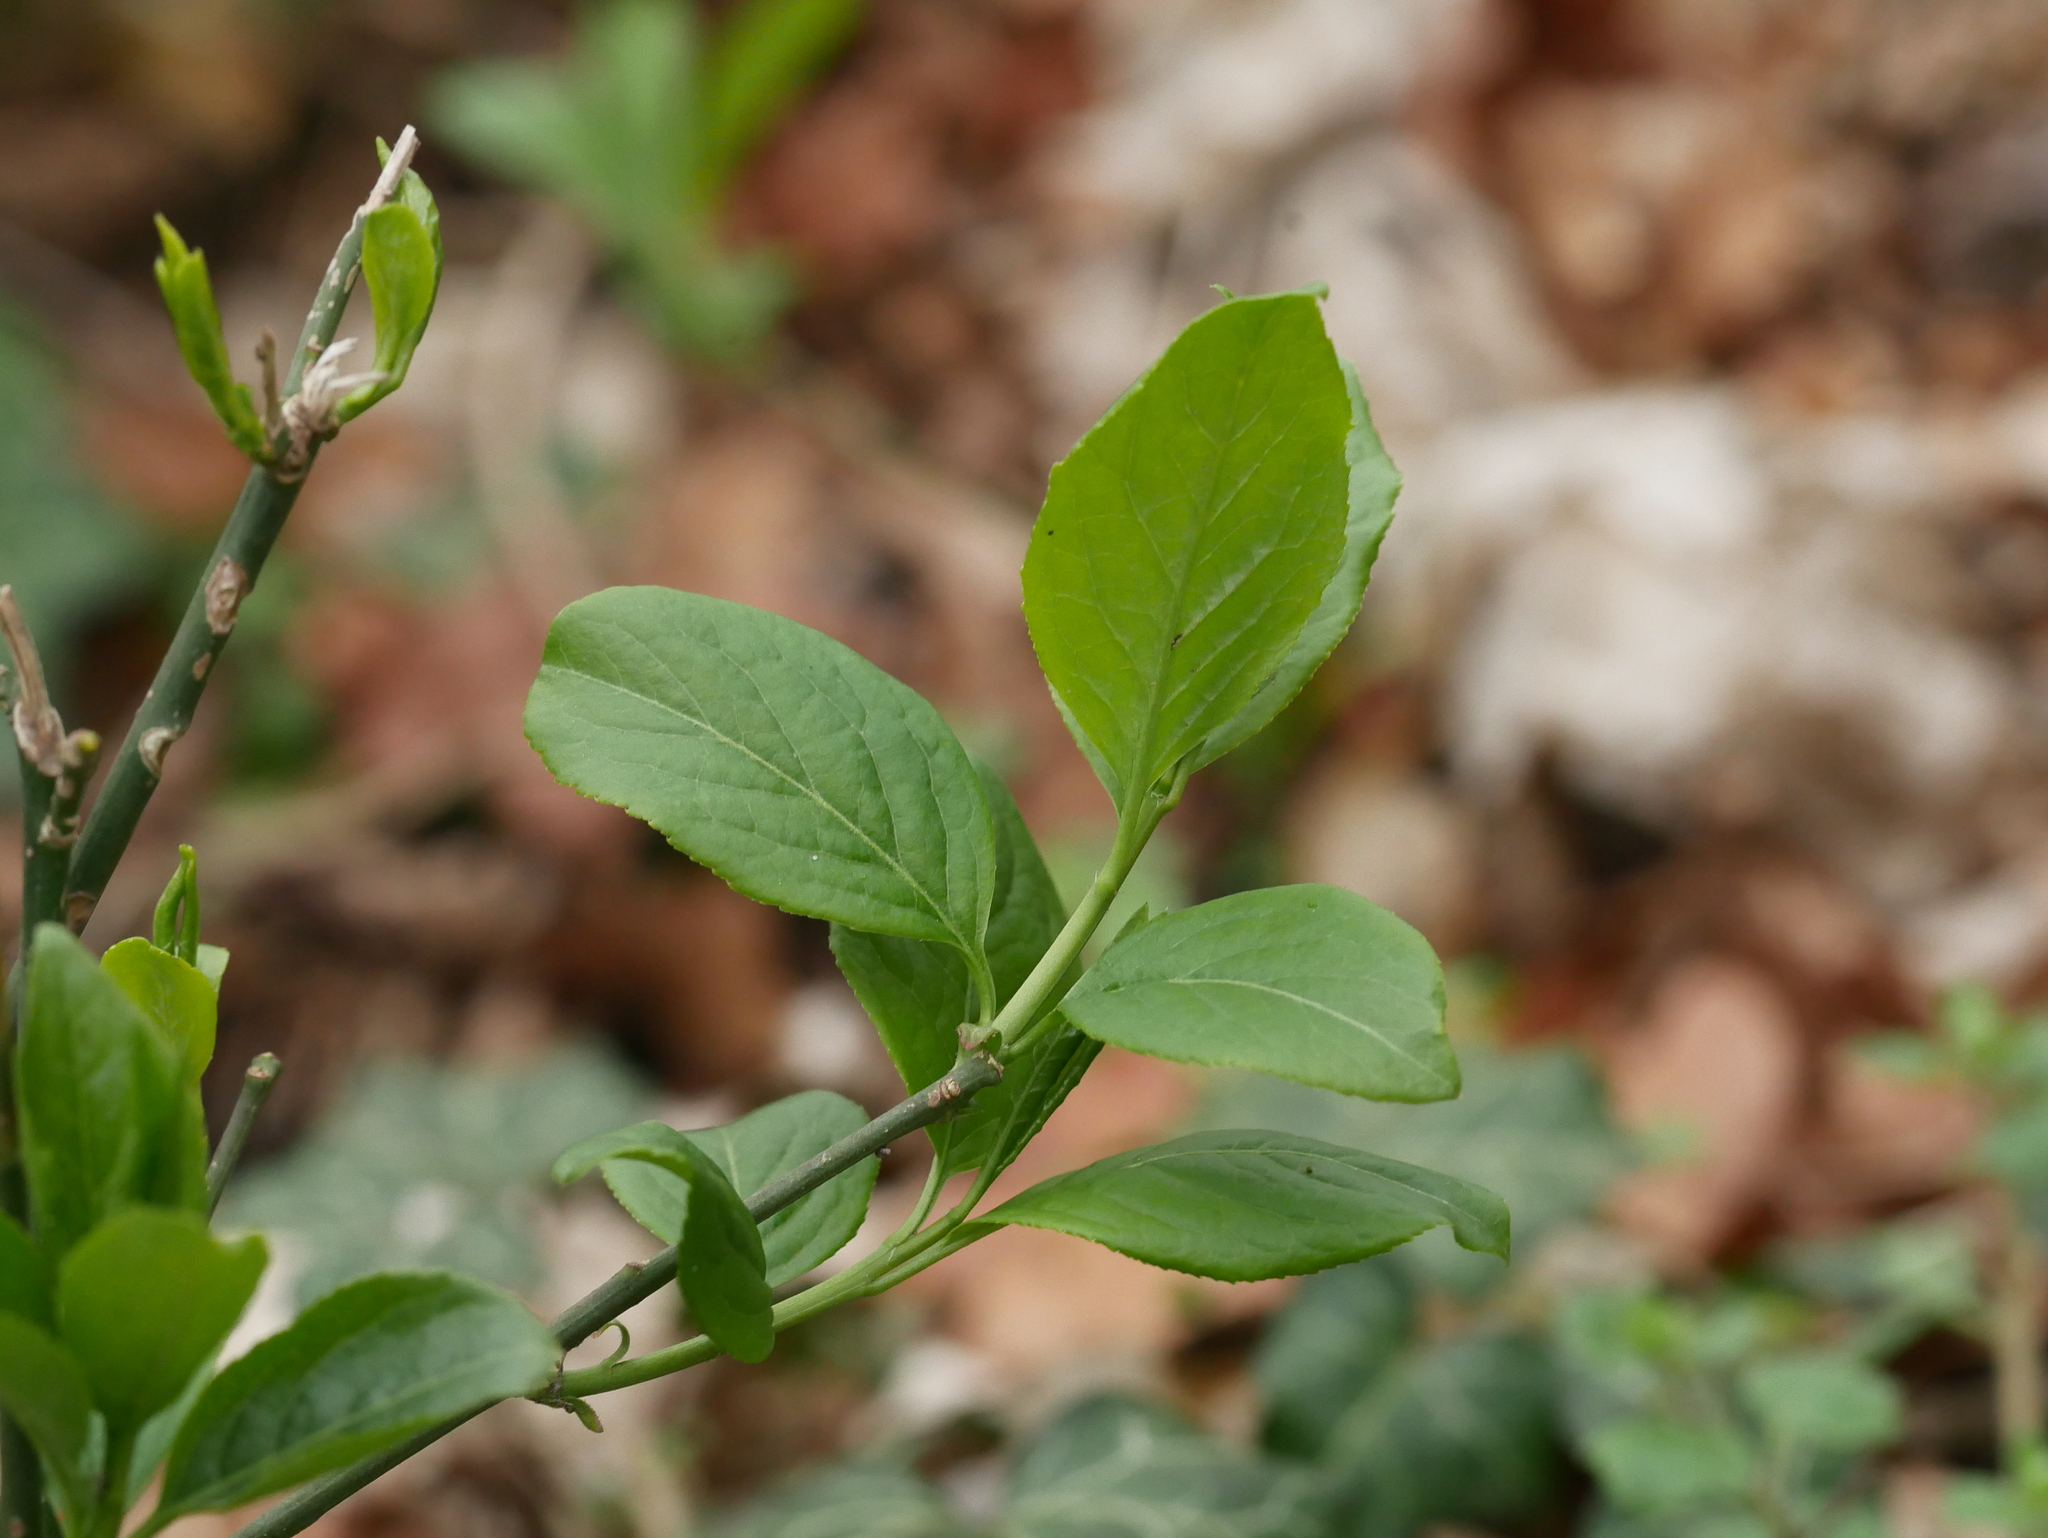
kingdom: Plantae
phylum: Tracheophyta
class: Magnoliopsida
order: Celastrales
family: Celastraceae
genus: Euonymus
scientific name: Euonymus europaeus
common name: Spindle
